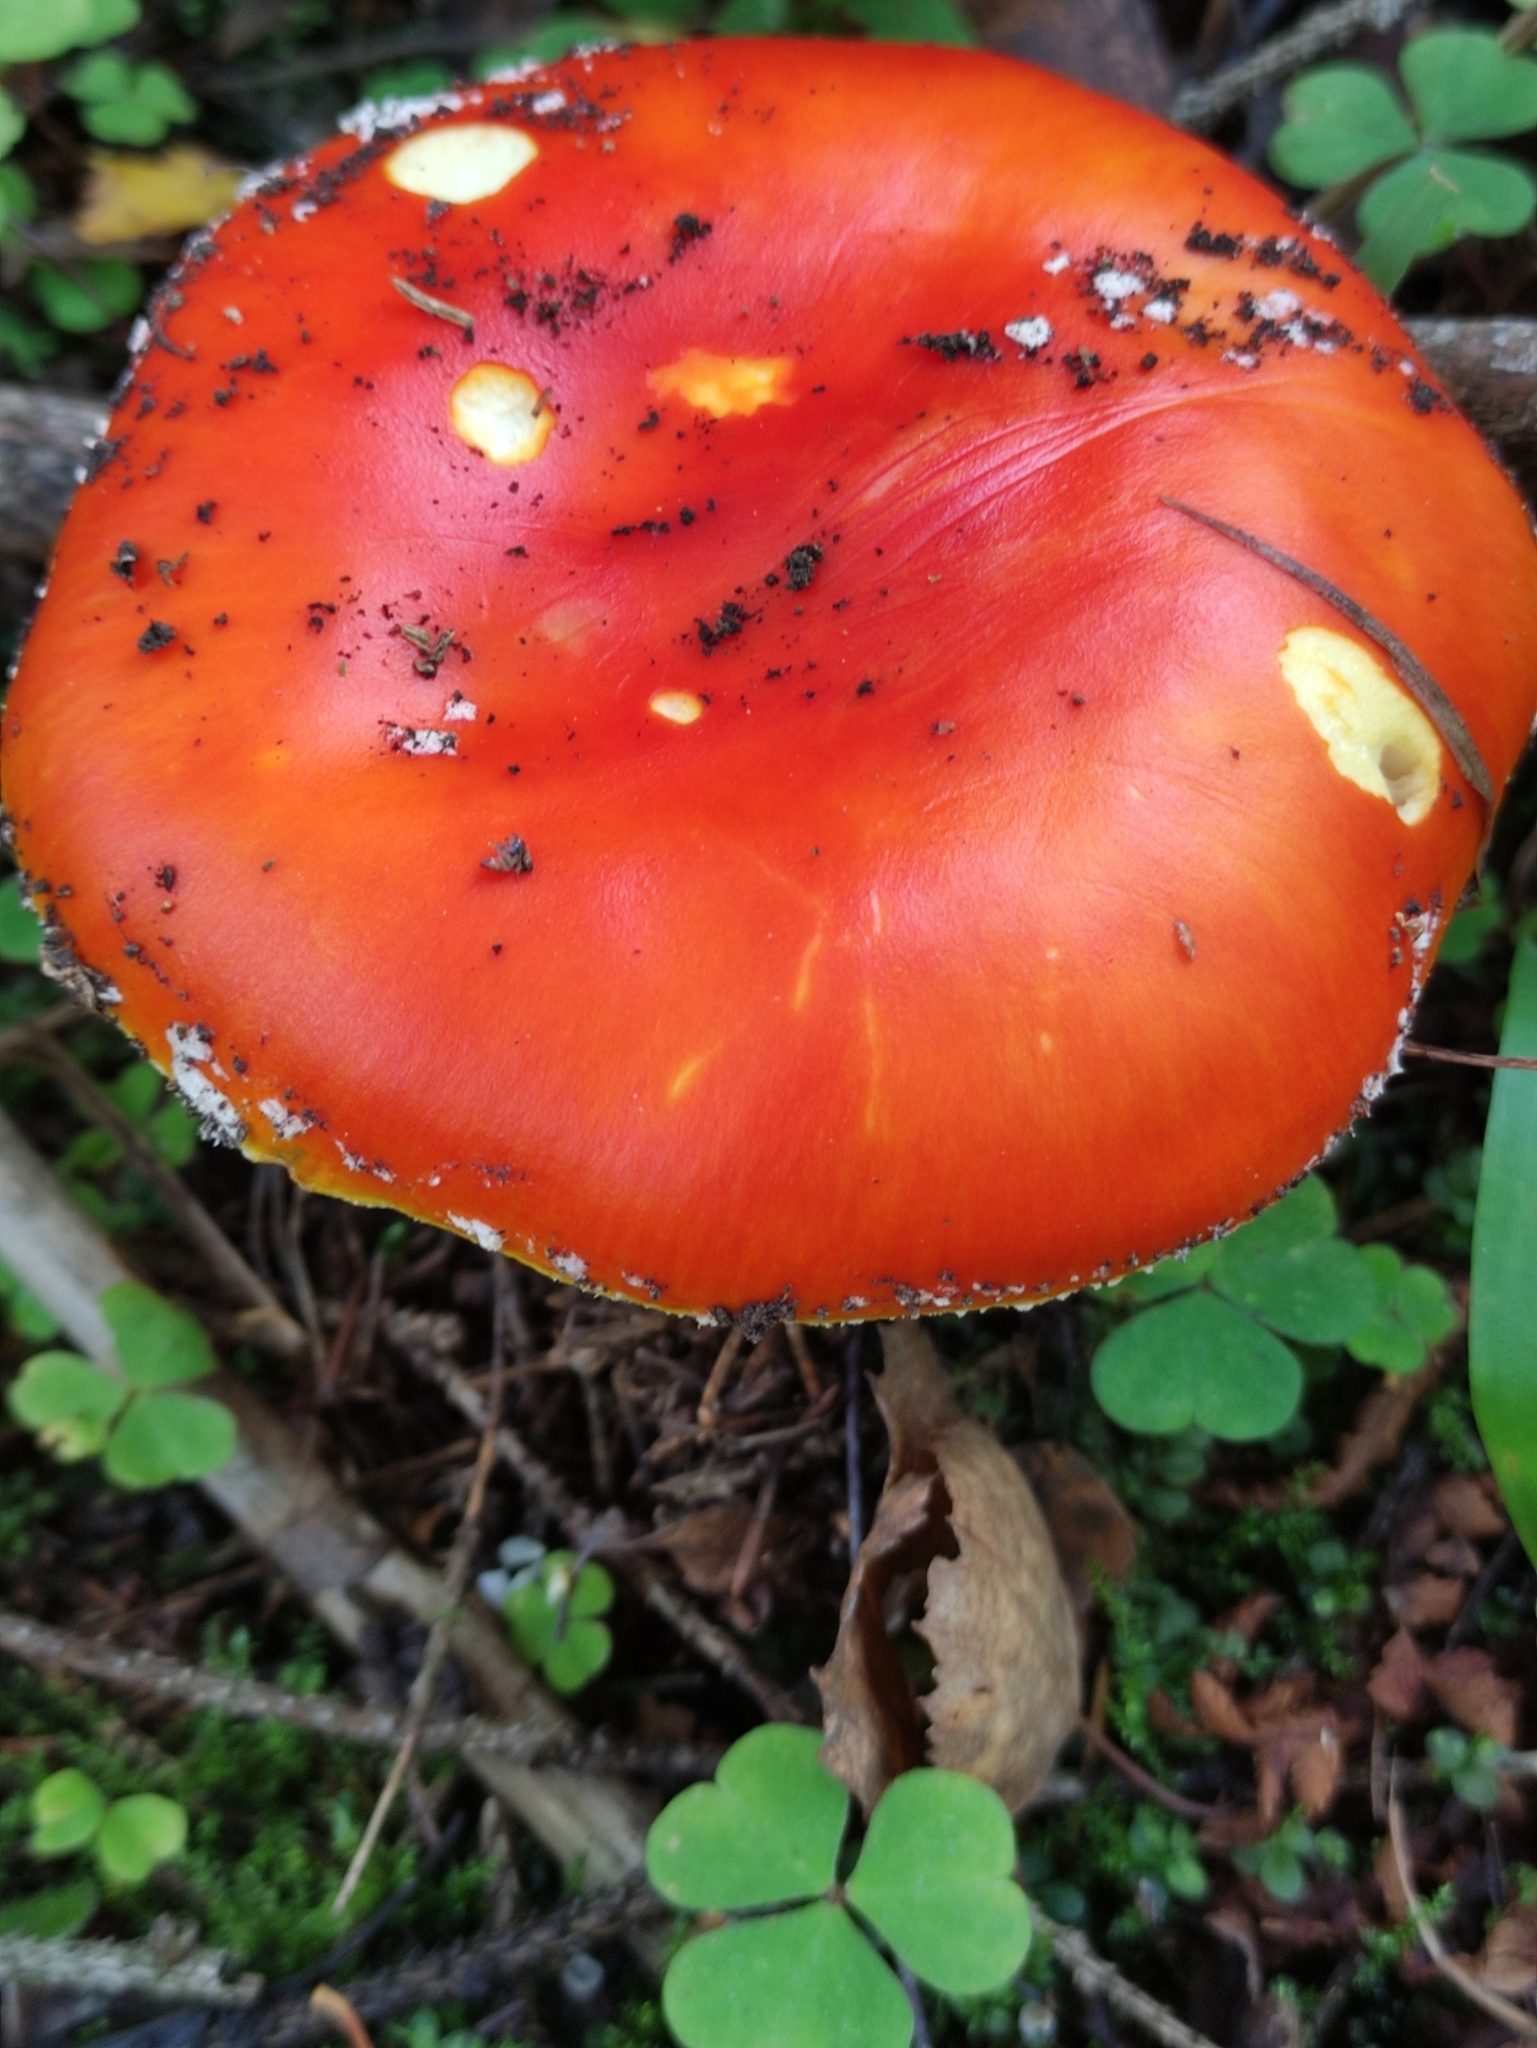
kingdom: Fungi
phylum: Basidiomycota
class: Agaricomycetes
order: Agaricales
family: Amanitaceae
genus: Amanita
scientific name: Amanita muscaria
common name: Fly agaric
